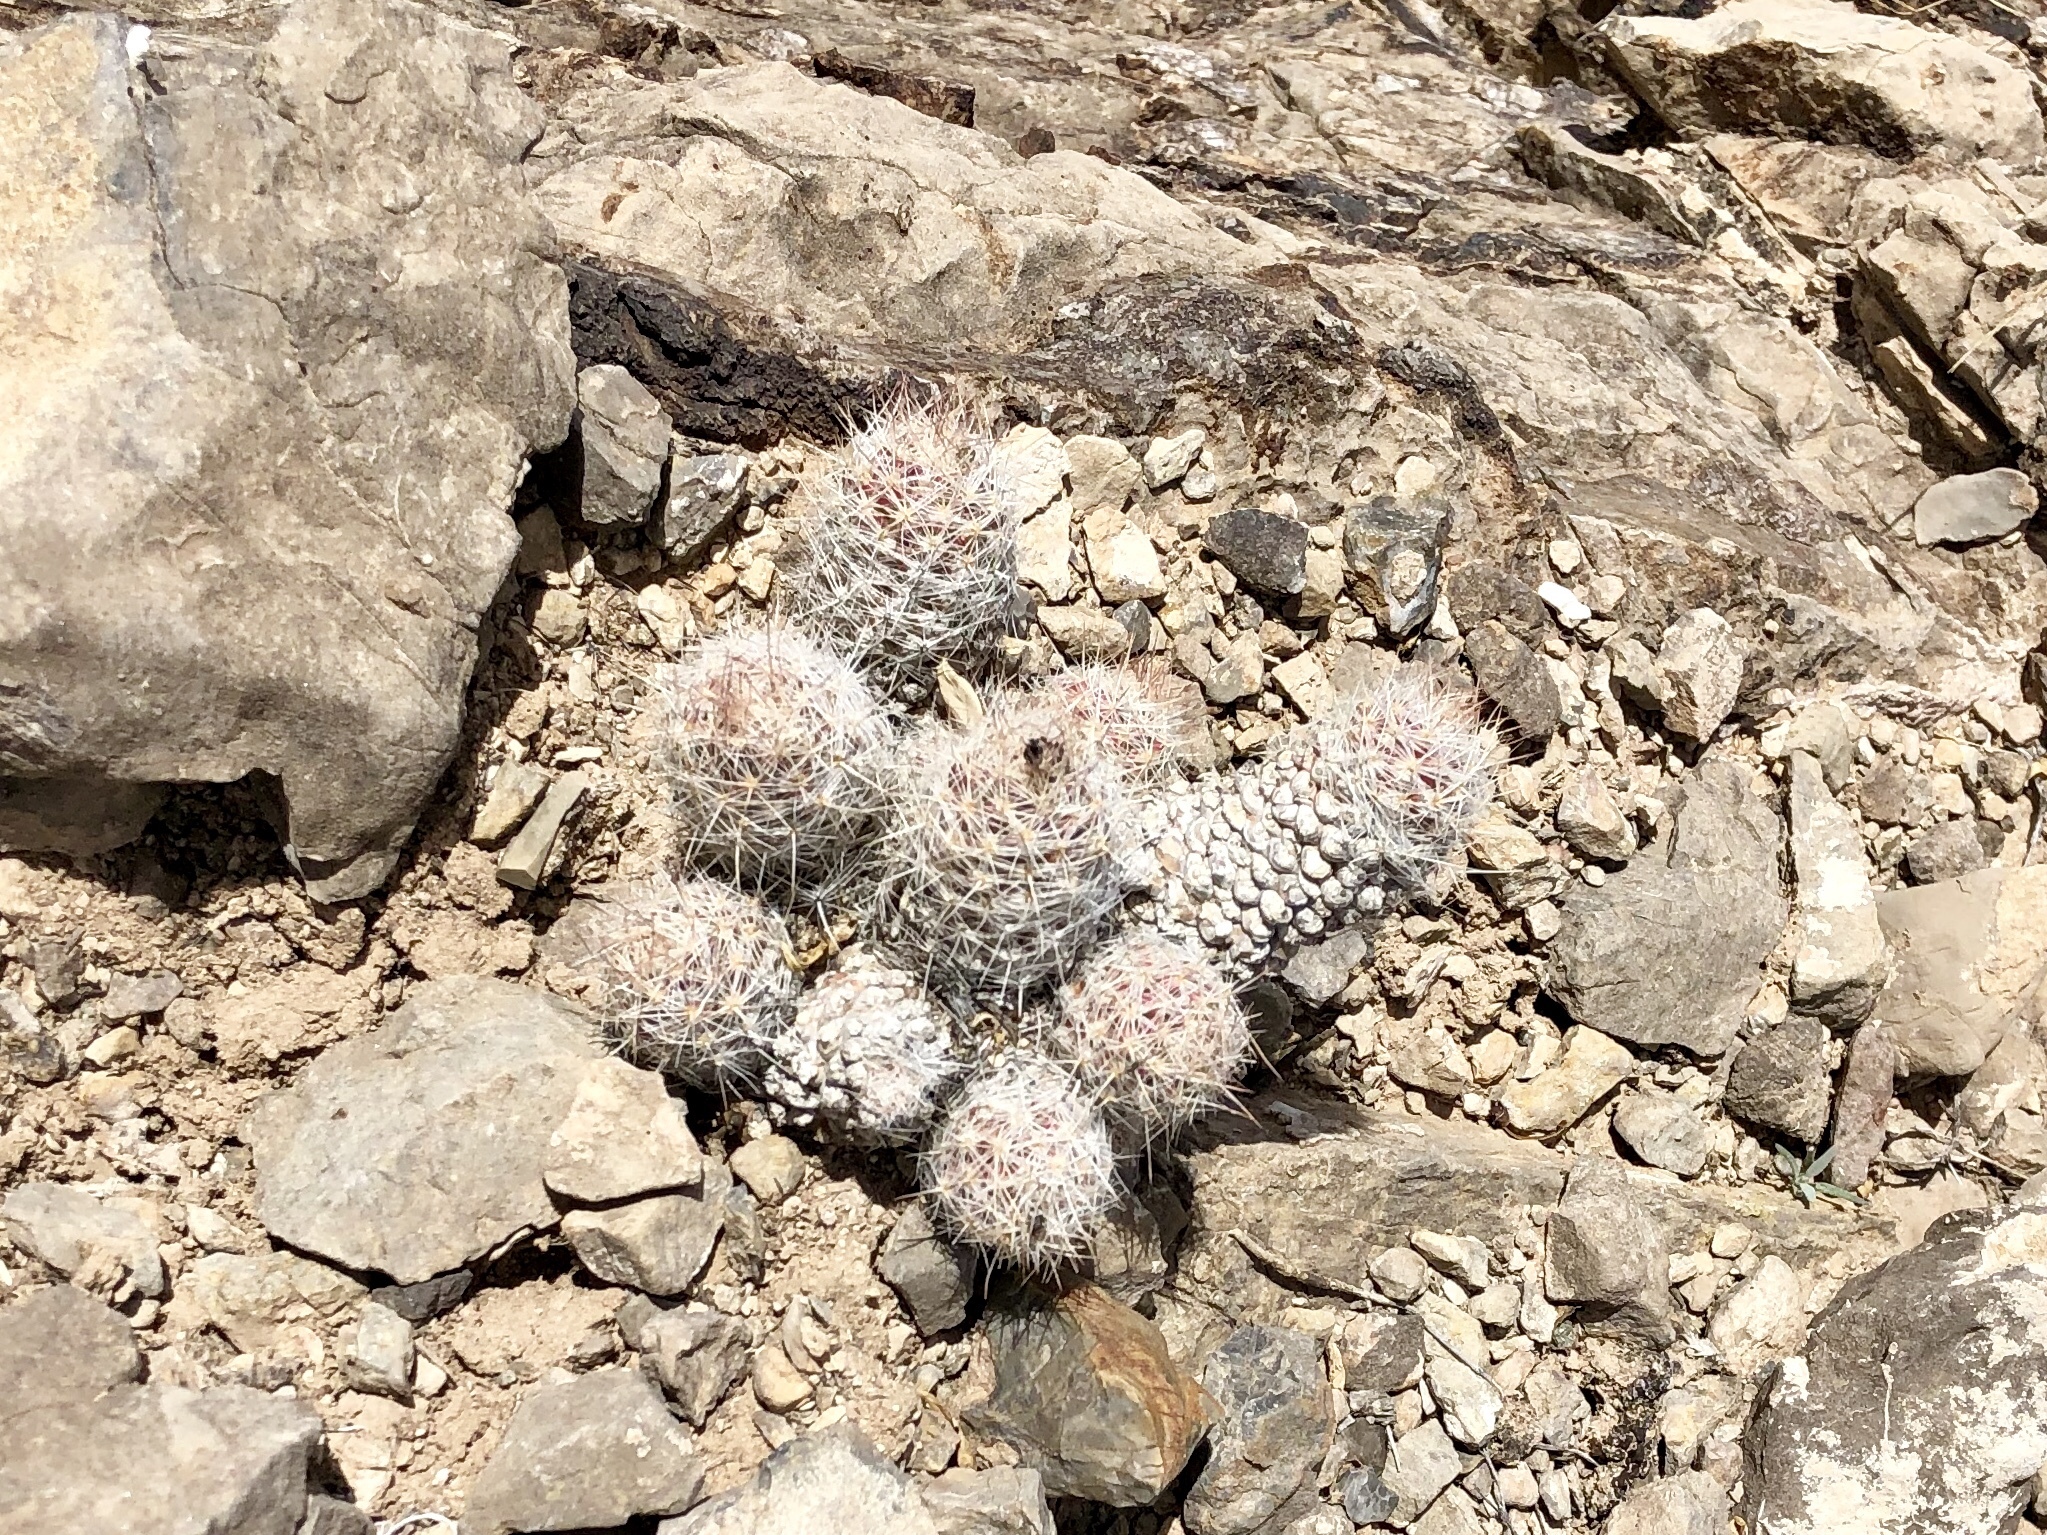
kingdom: Plantae
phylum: Tracheophyta
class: Magnoliopsida
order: Caryophyllales
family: Cactaceae
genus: Pelecyphora
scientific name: Pelecyphora tuberculosa
